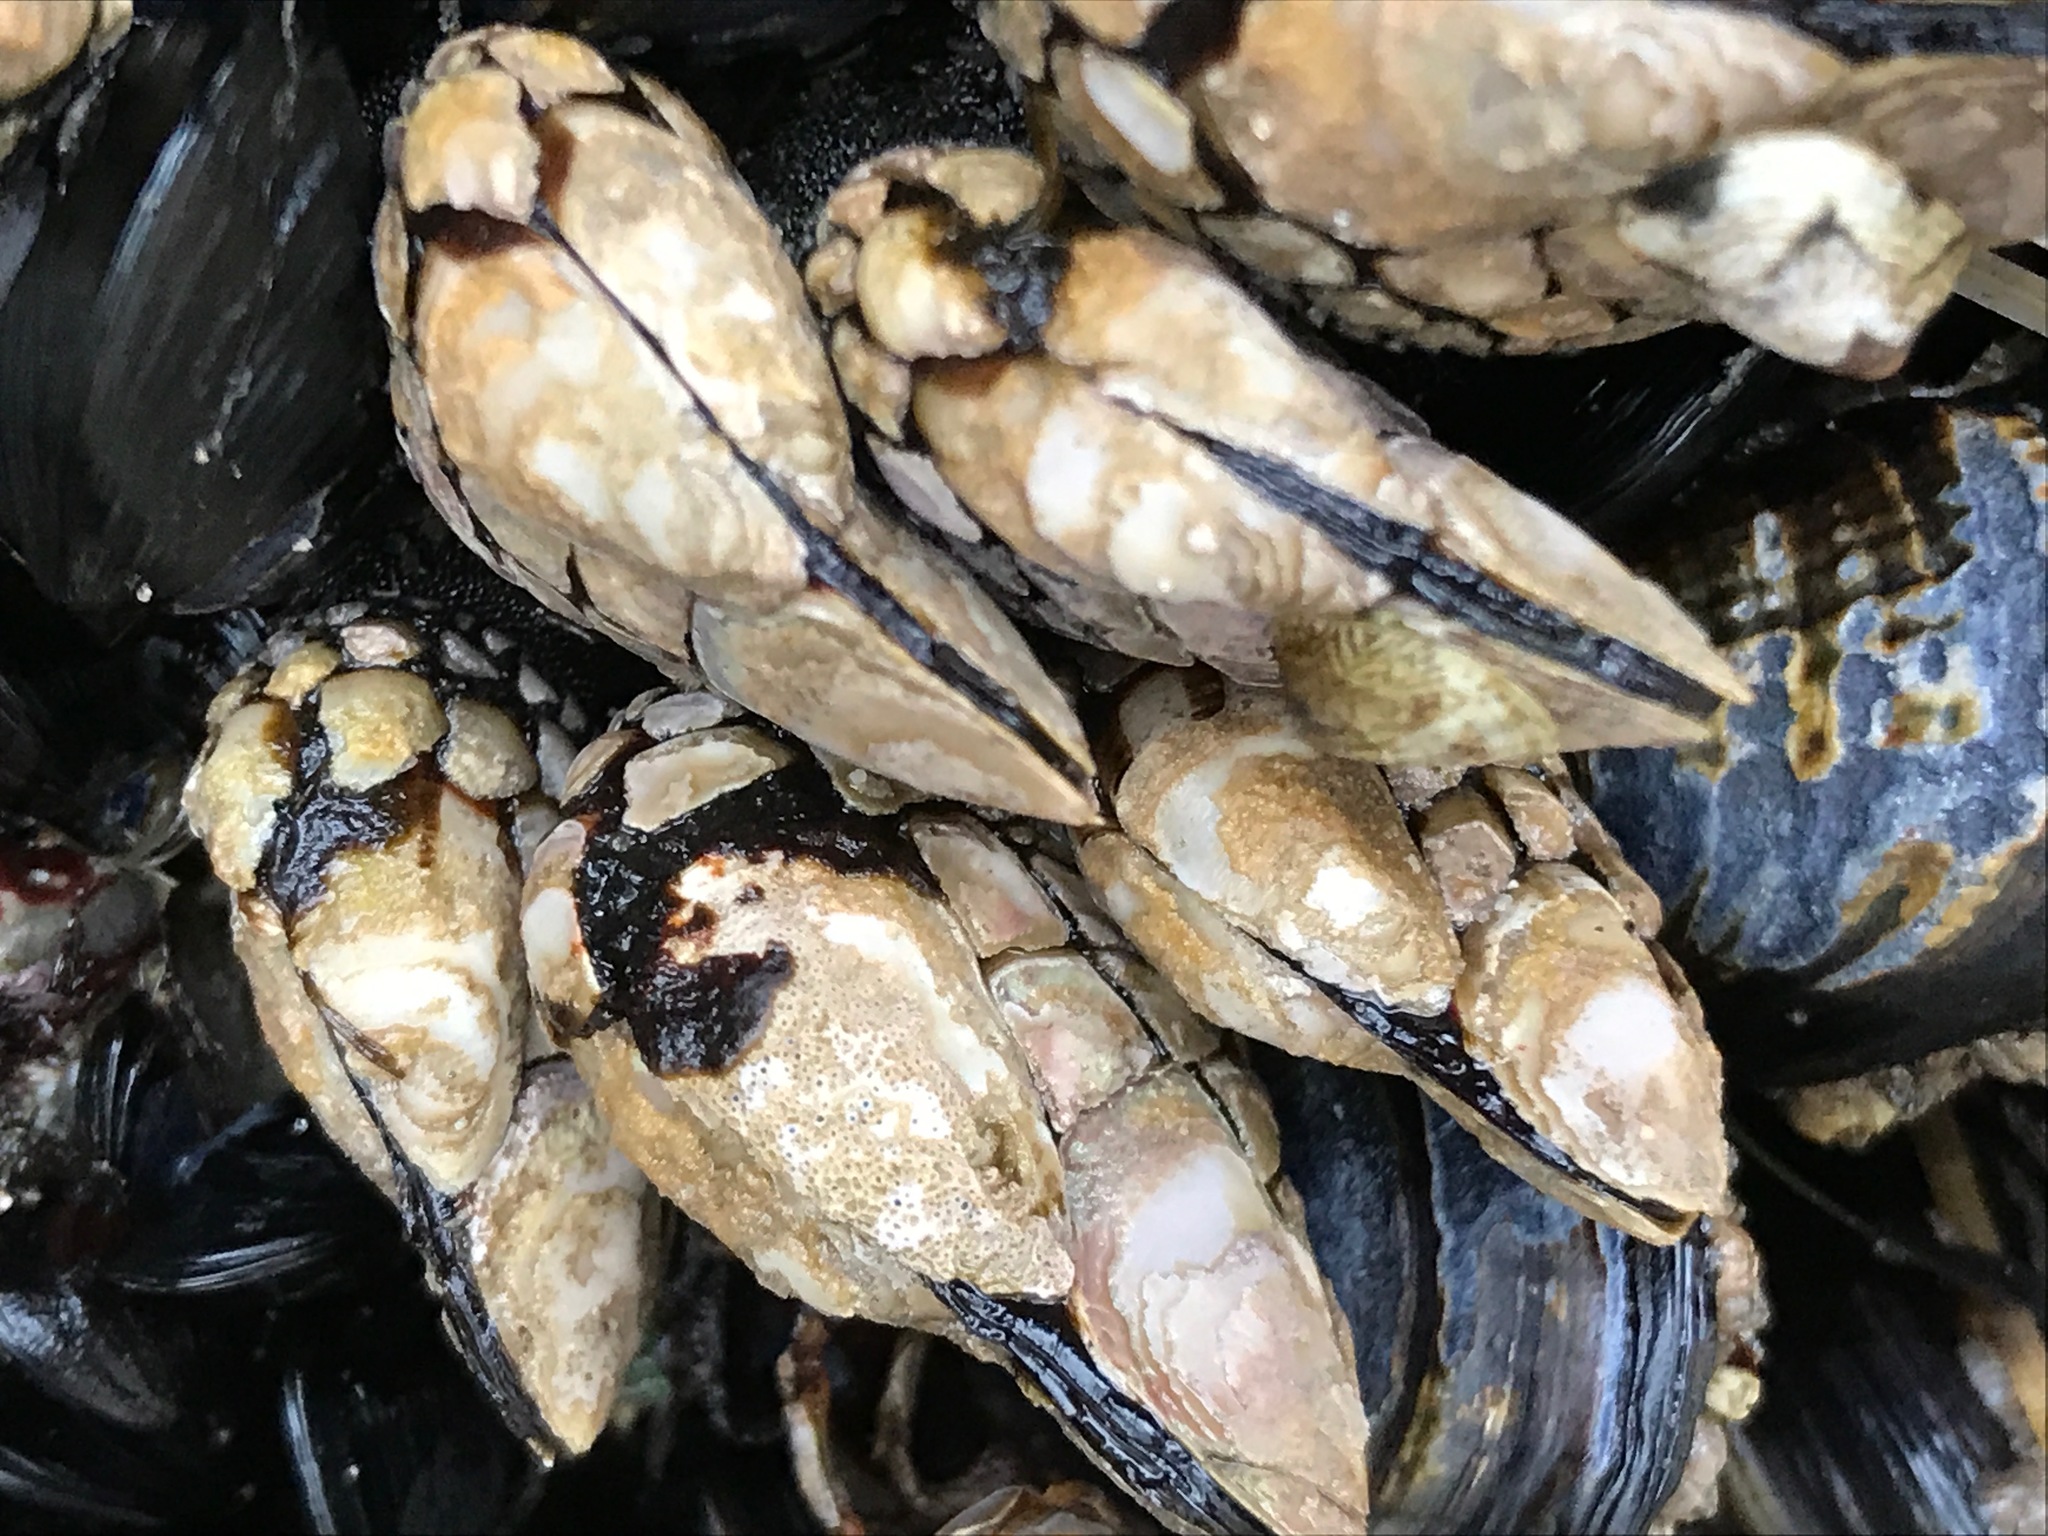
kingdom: Animalia
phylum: Arthropoda
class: Maxillopoda
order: Pedunculata
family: Pollicipedidae
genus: Pollicipes
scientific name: Pollicipes polymerus
